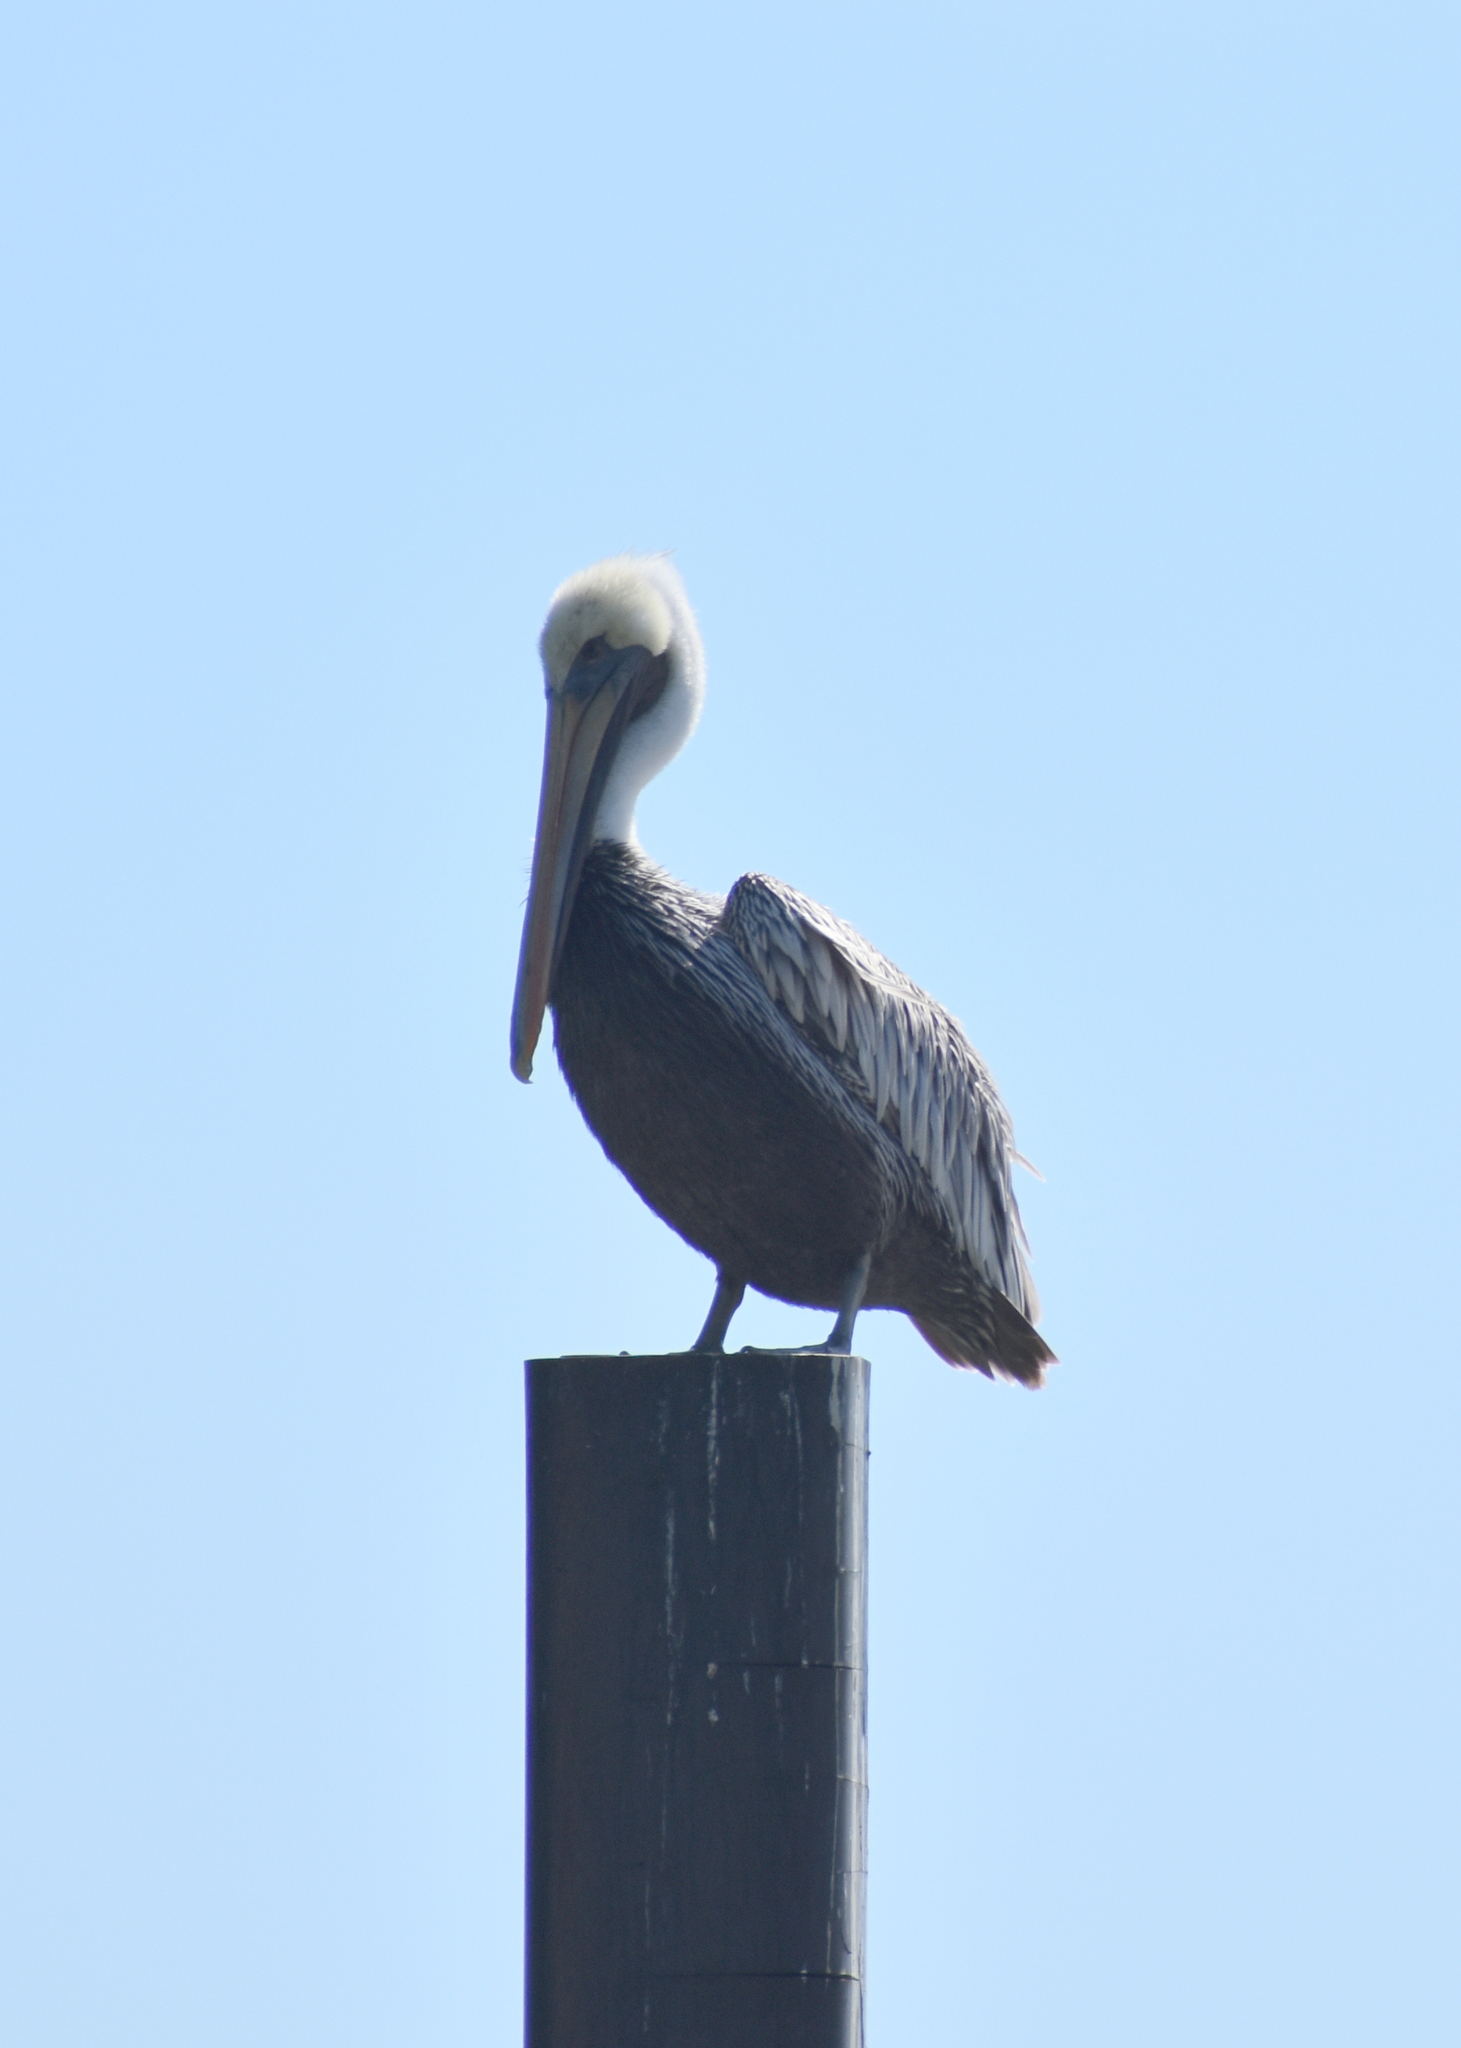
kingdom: Animalia
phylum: Chordata
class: Aves
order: Pelecaniformes
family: Pelecanidae
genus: Pelecanus
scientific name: Pelecanus occidentalis
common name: Brown pelican
